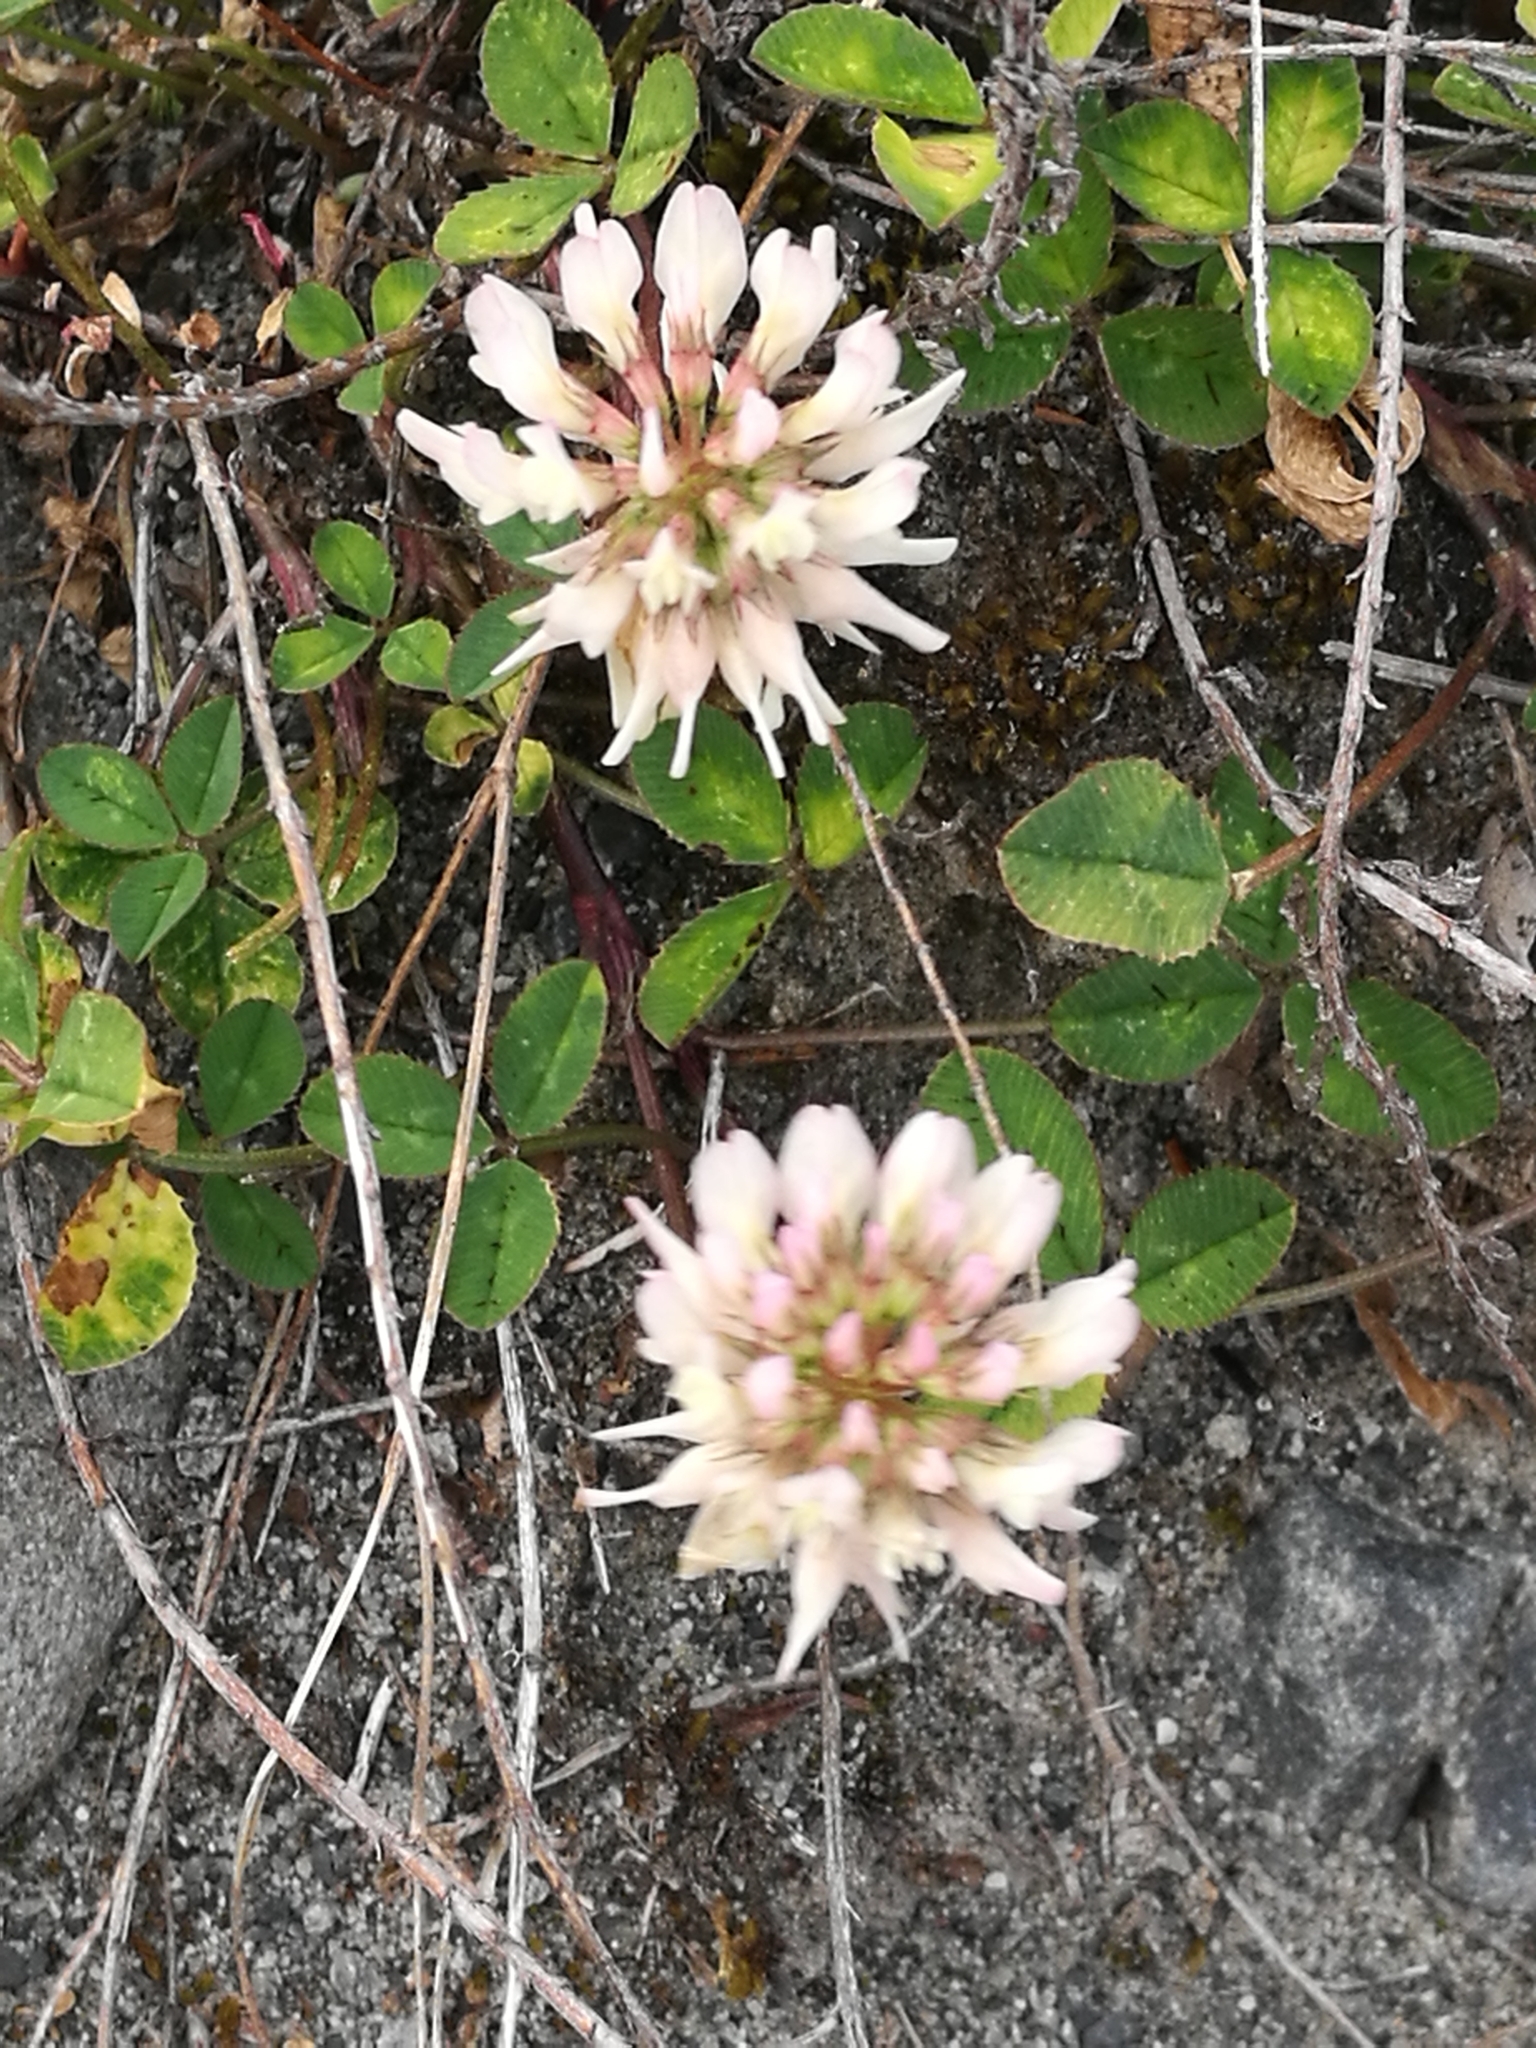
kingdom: Plantae
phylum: Tracheophyta
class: Magnoliopsida
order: Fabales
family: Fabaceae
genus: Trifolium
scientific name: Trifolium repens
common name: White clover
